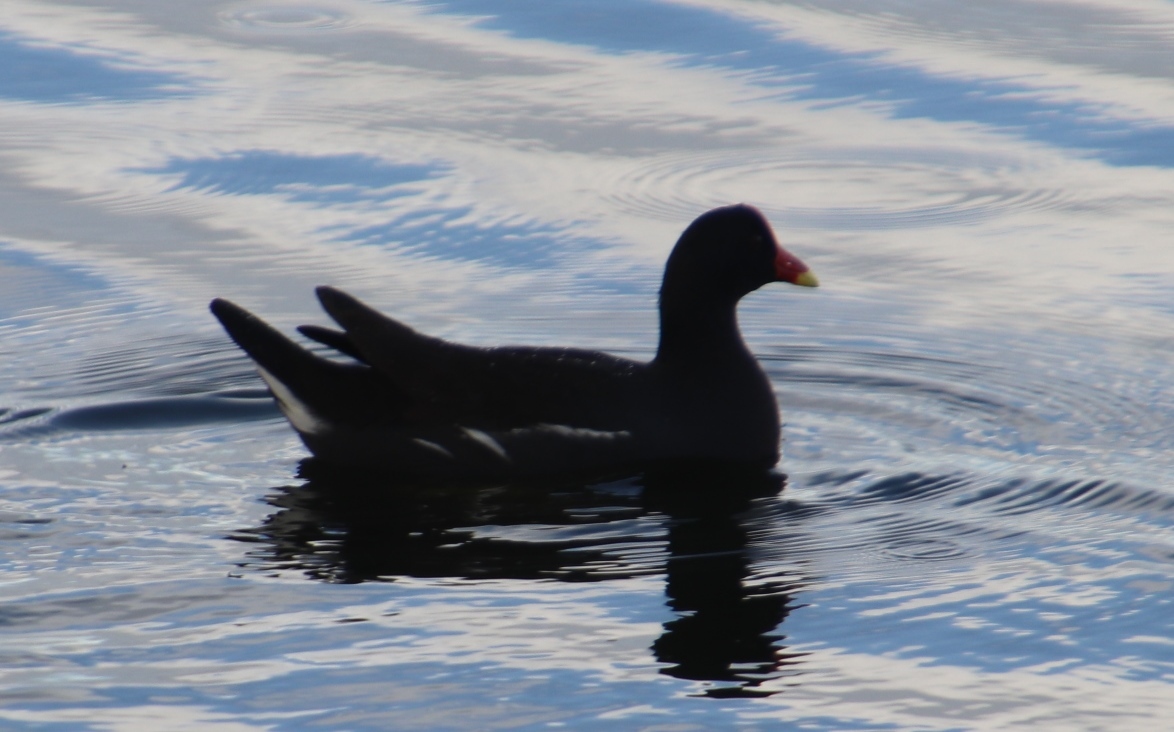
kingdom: Animalia
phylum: Chordata
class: Aves
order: Gruiformes
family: Rallidae
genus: Gallinula
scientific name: Gallinula chloropus
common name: Common moorhen
